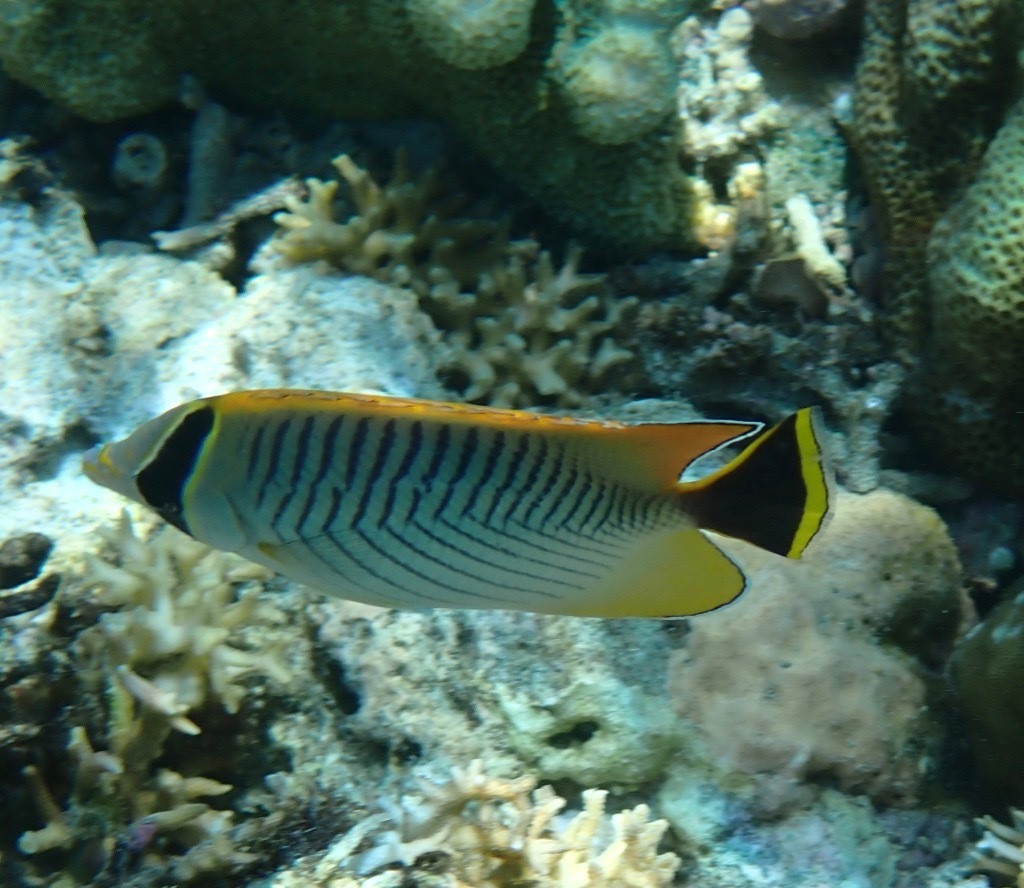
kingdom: Animalia
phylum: Chordata
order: Perciformes
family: Chaetodontidae
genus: Chaetodon
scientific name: Chaetodon trifascialis
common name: Chevroned butterflyfish
